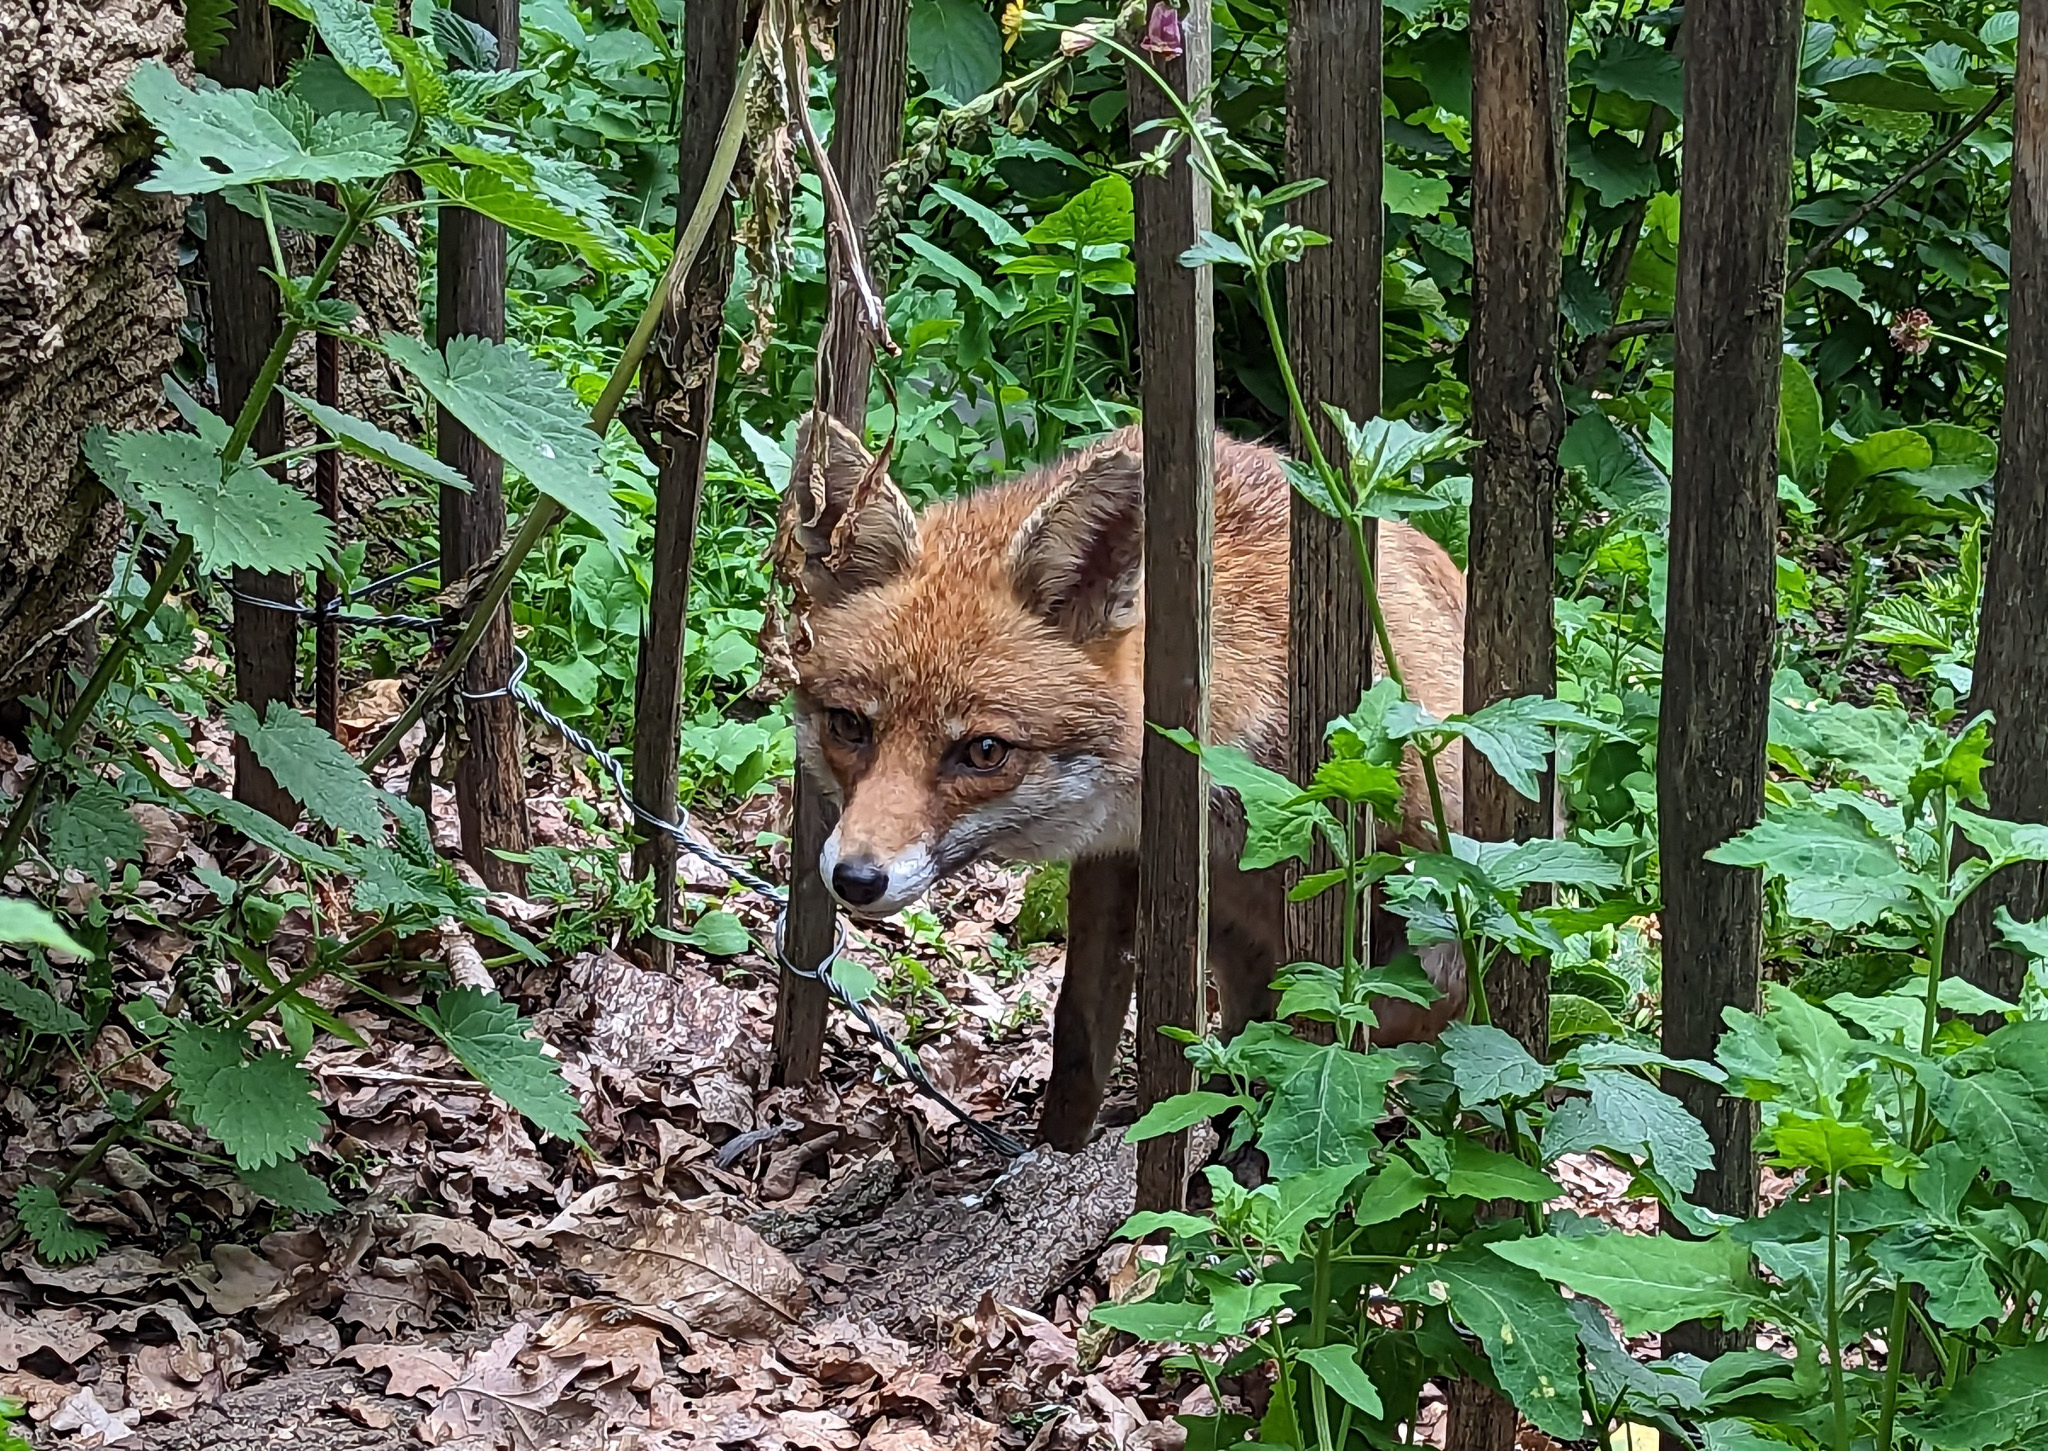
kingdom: Animalia
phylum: Chordata
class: Mammalia
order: Carnivora
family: Canidae
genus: Vulpes
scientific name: Vulpes vulpes
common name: Red fox
